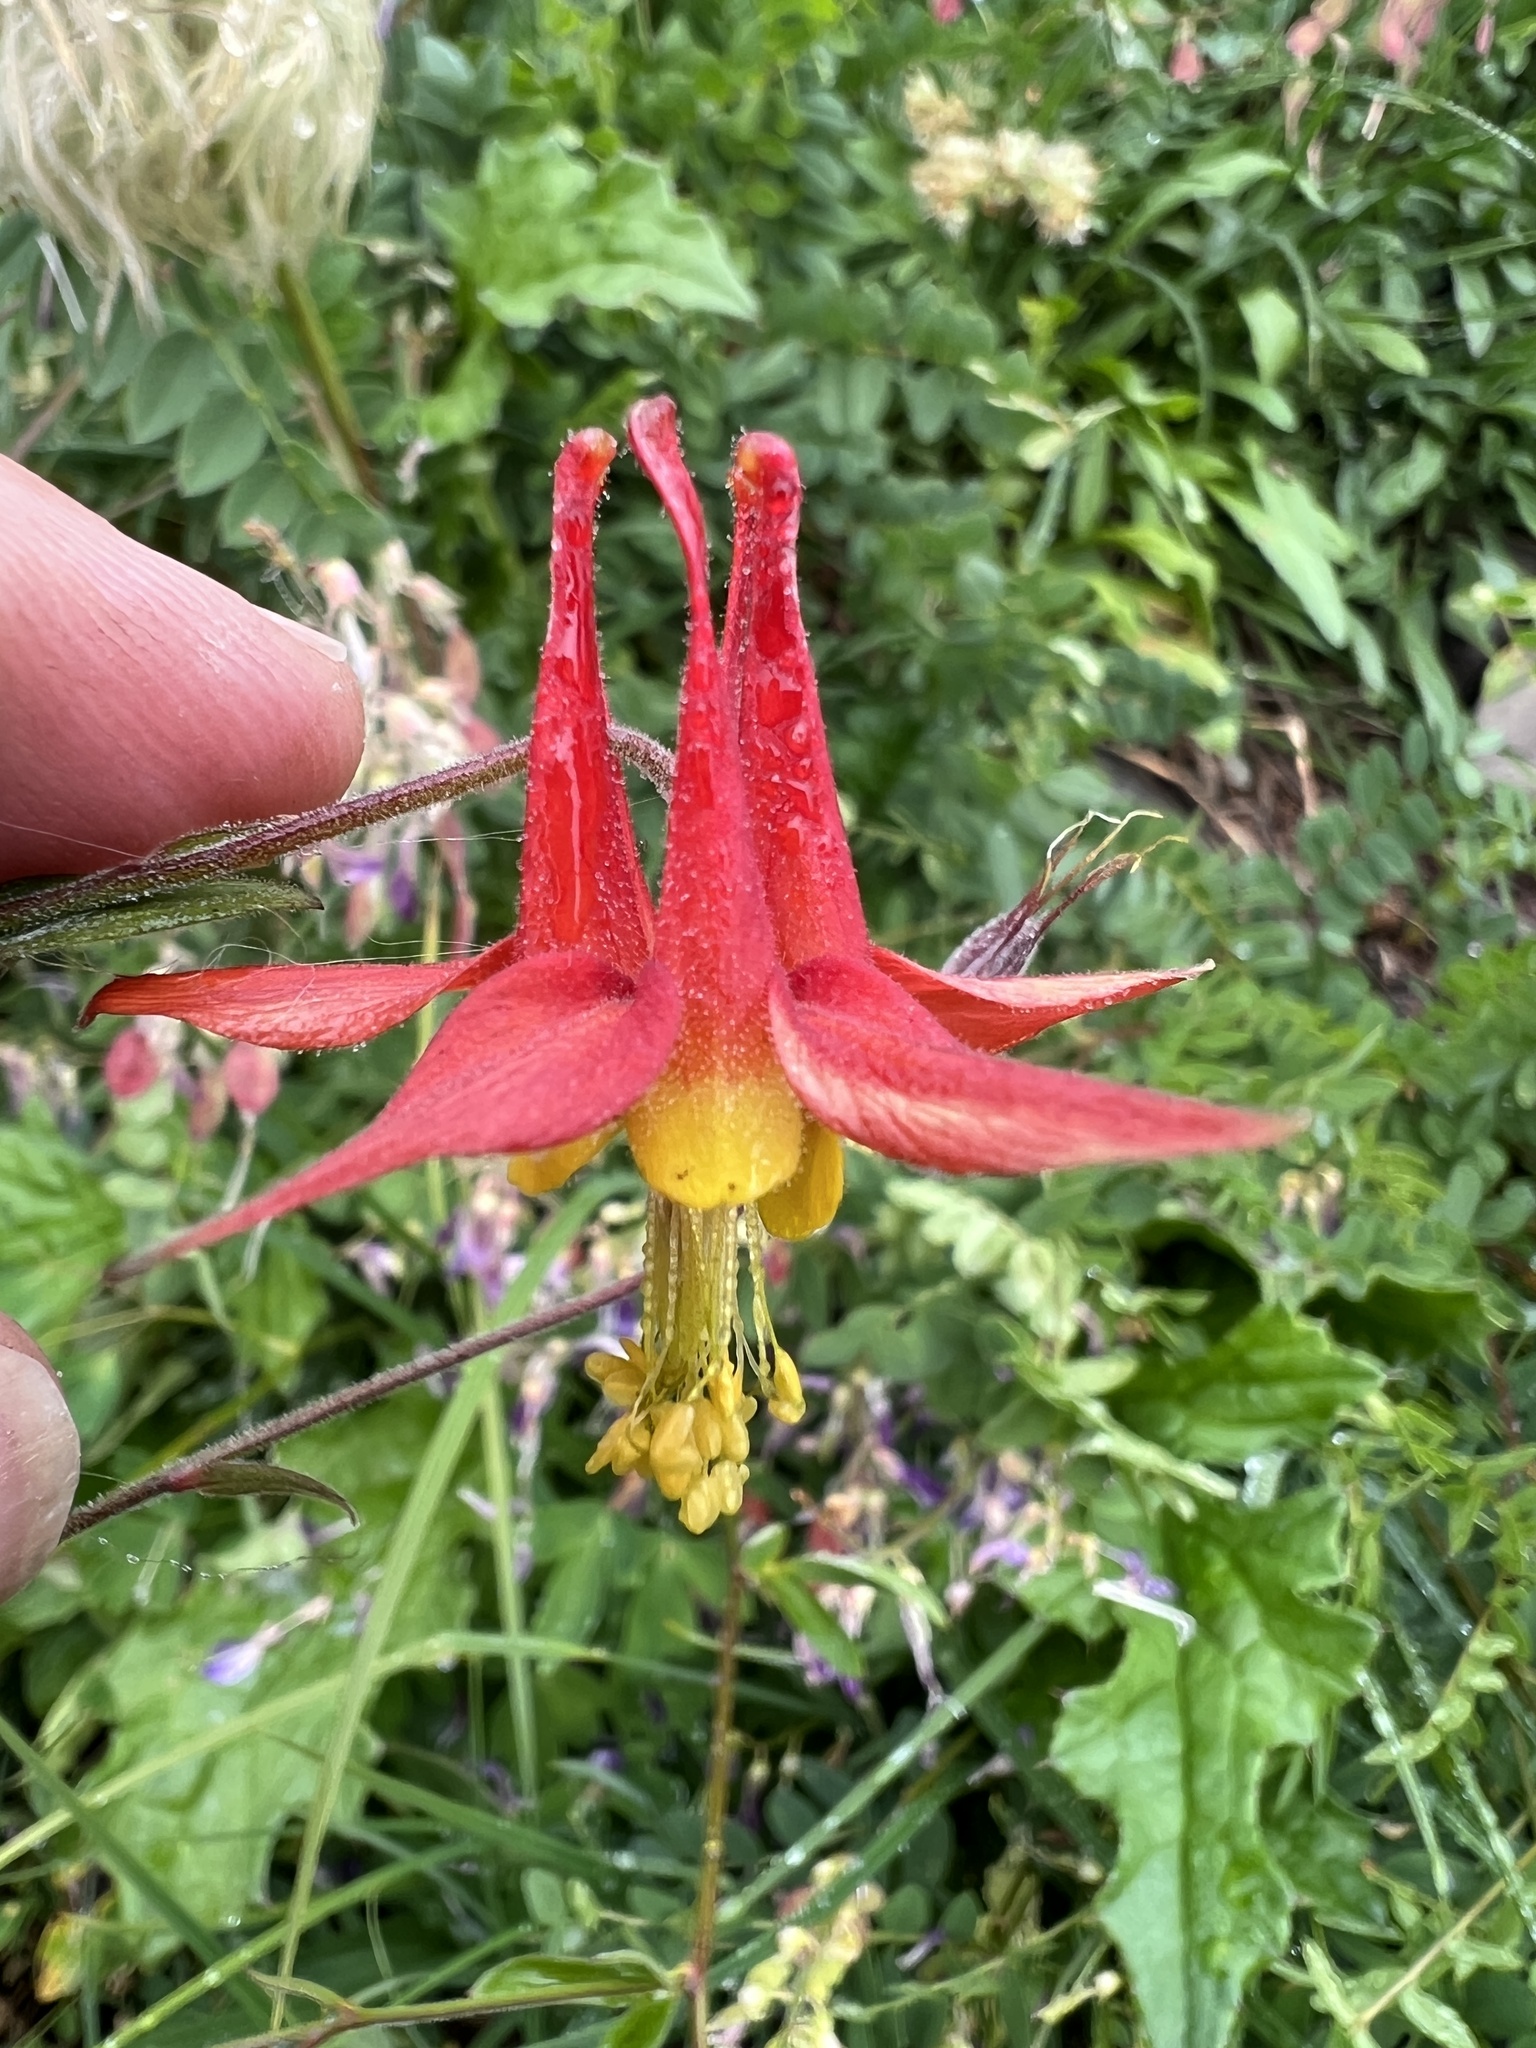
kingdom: Plantae
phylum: Tracheophyta
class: Magnoliopsida
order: Ranunculales
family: Ranunculaceae
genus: Aquilegia
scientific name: Aquilegia formosa
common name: Sitka columbine
